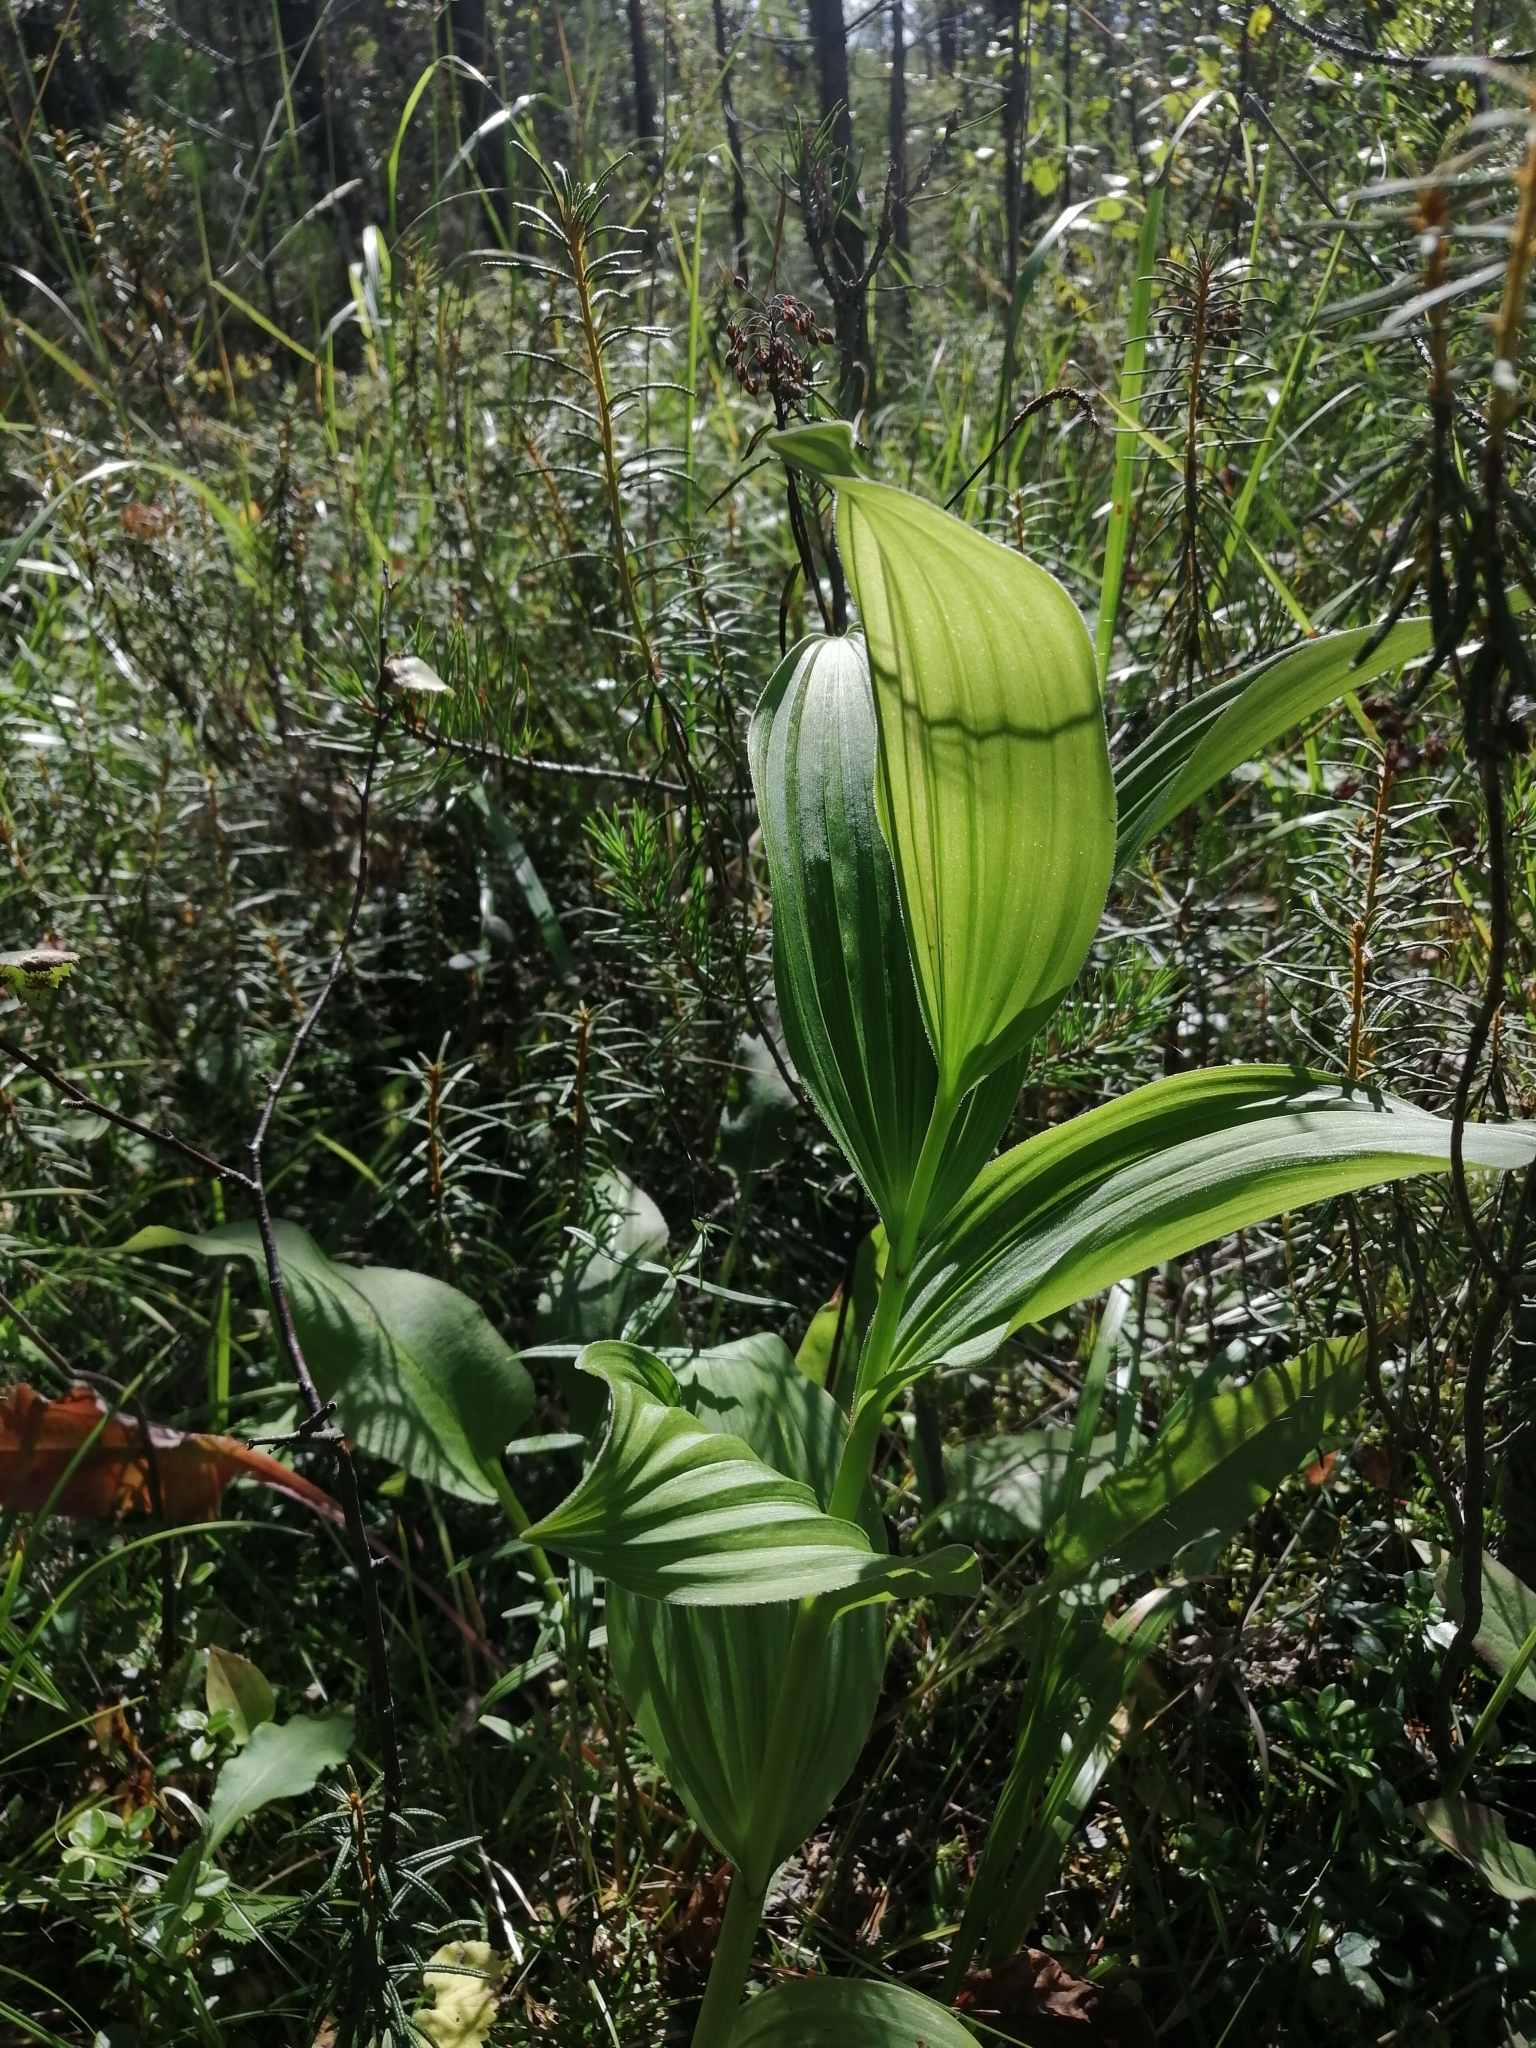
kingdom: Plantae
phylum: Tracheophyta
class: Liliopsida
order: Liliales
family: Melanthiaceae
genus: Veratrum
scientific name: Veratrum lobelianum
